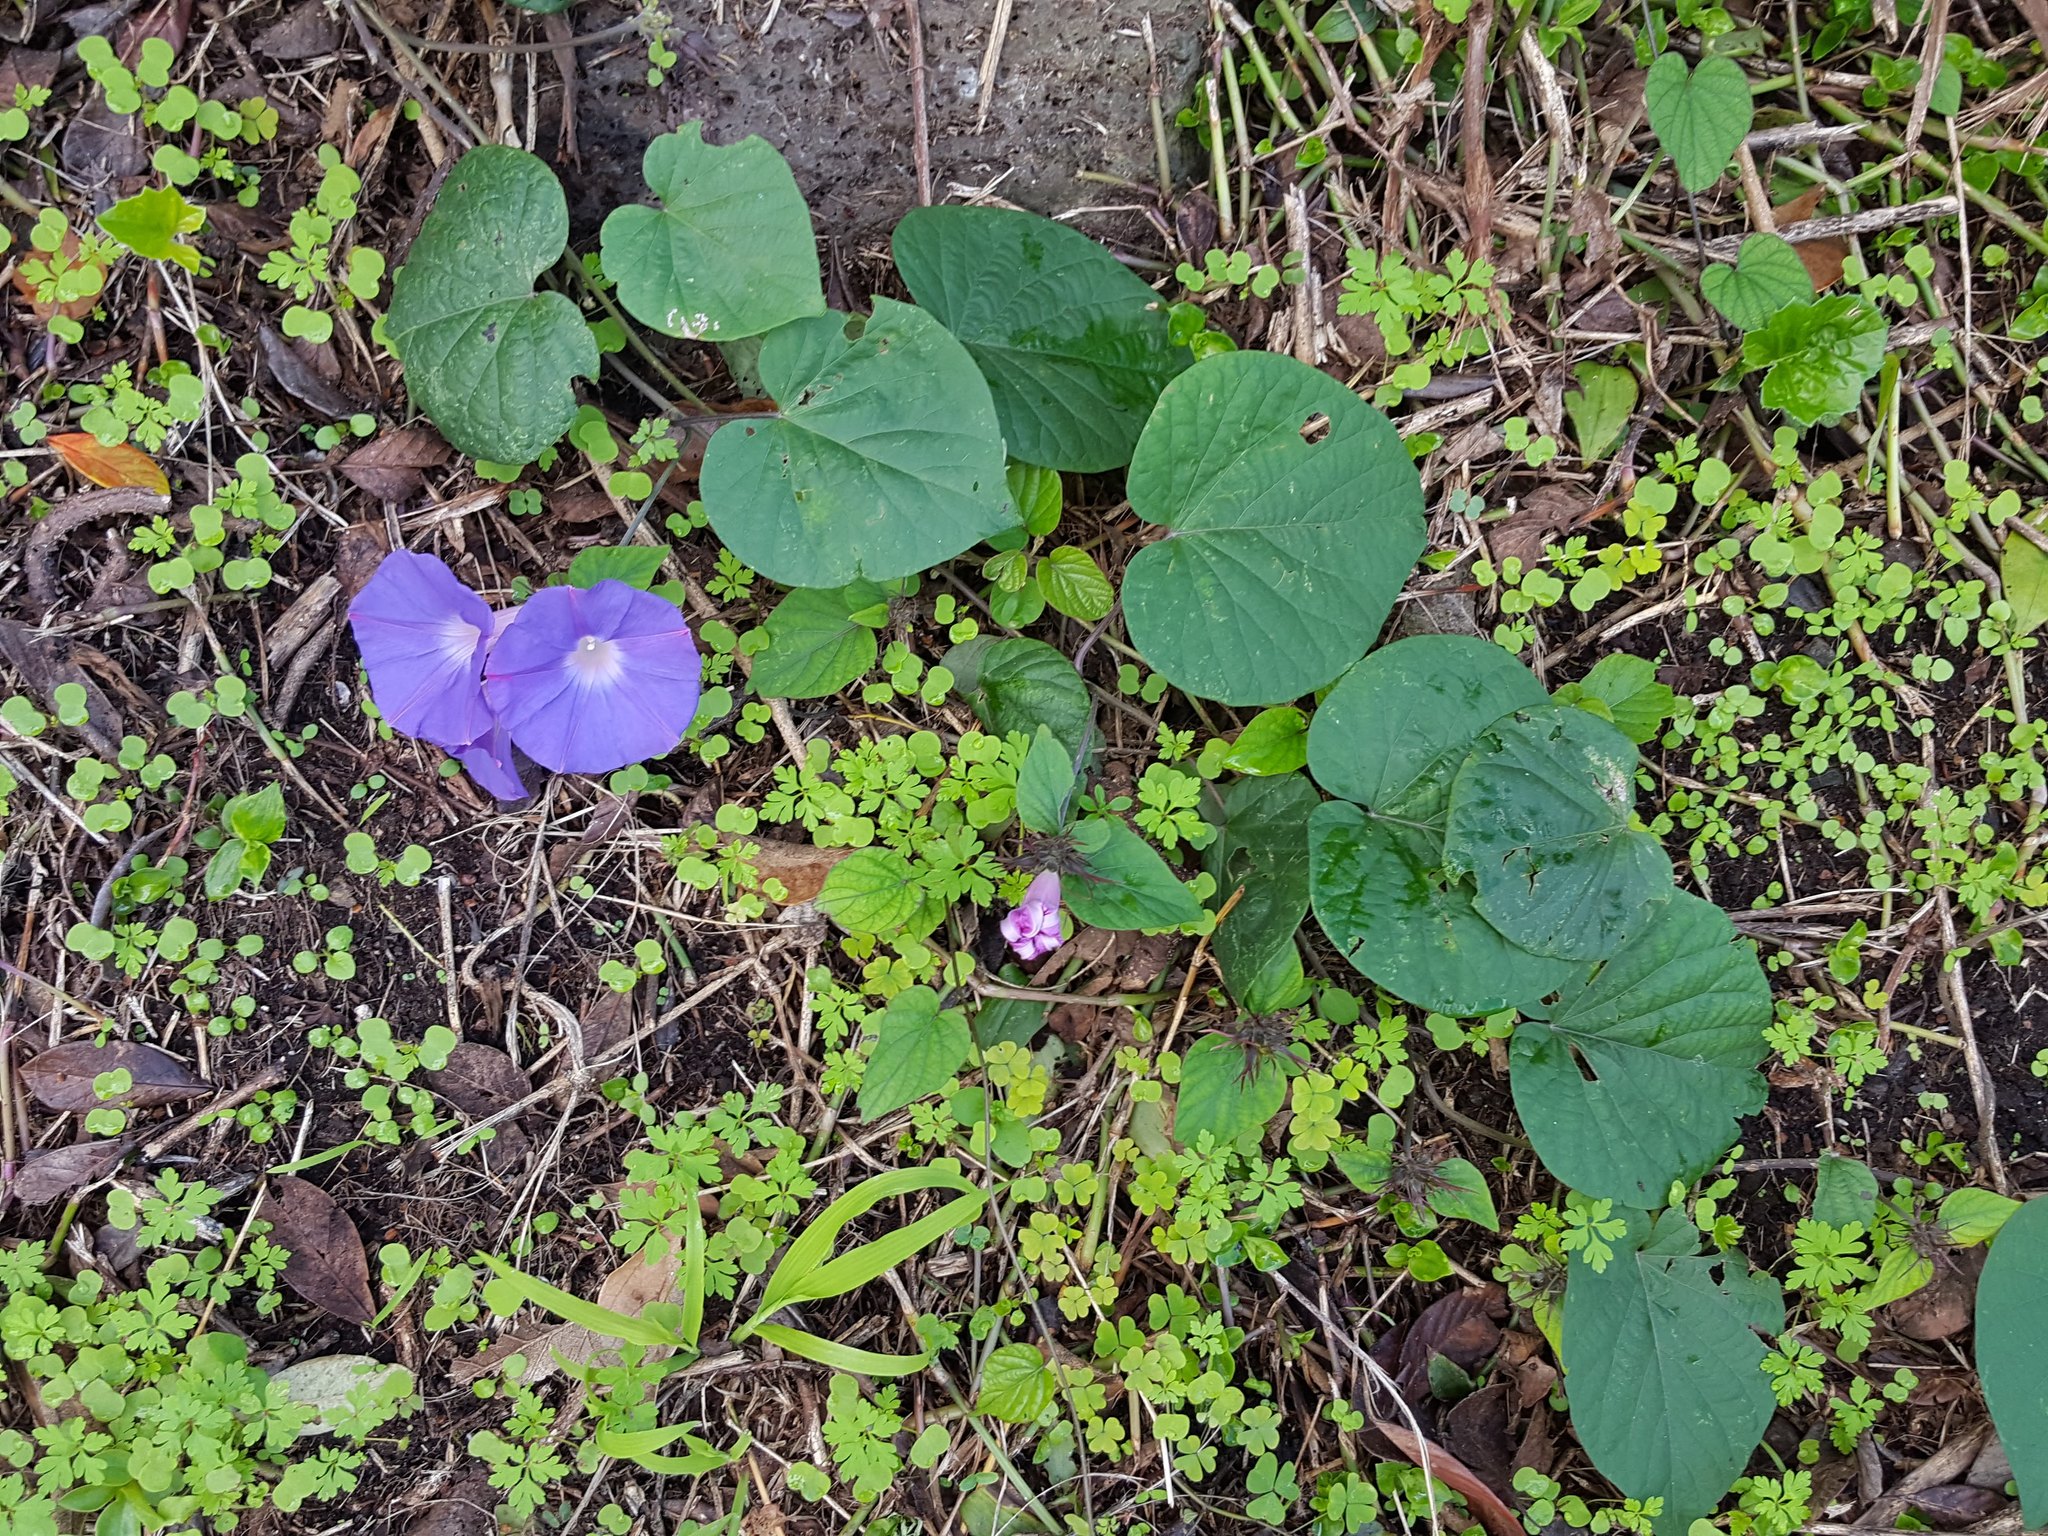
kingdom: Plantae
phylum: Tracheophyta
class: Magnoliopsida
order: Solanales
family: Convolvulaceae
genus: Ipomoea
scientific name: Ipomoea indica
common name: Blue dawnflower
